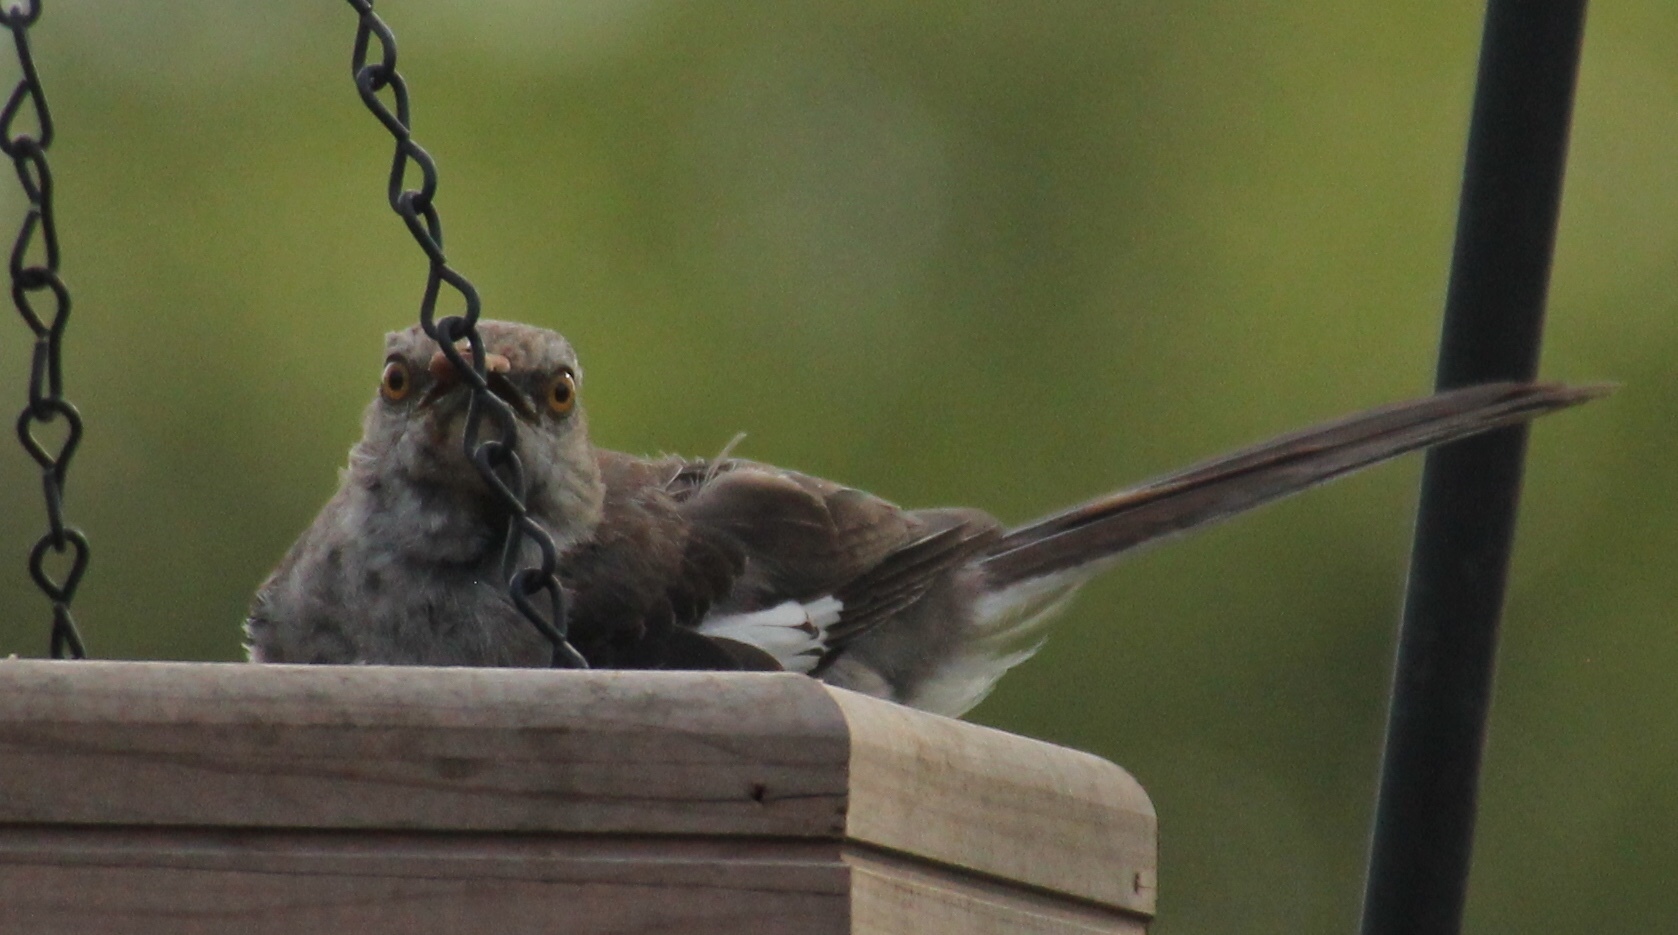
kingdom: Animalia
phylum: Chordata
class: Aves
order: Passeriformes
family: Mimidae
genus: Mimus
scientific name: Mimus polyglottos
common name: Northern mockingbird
